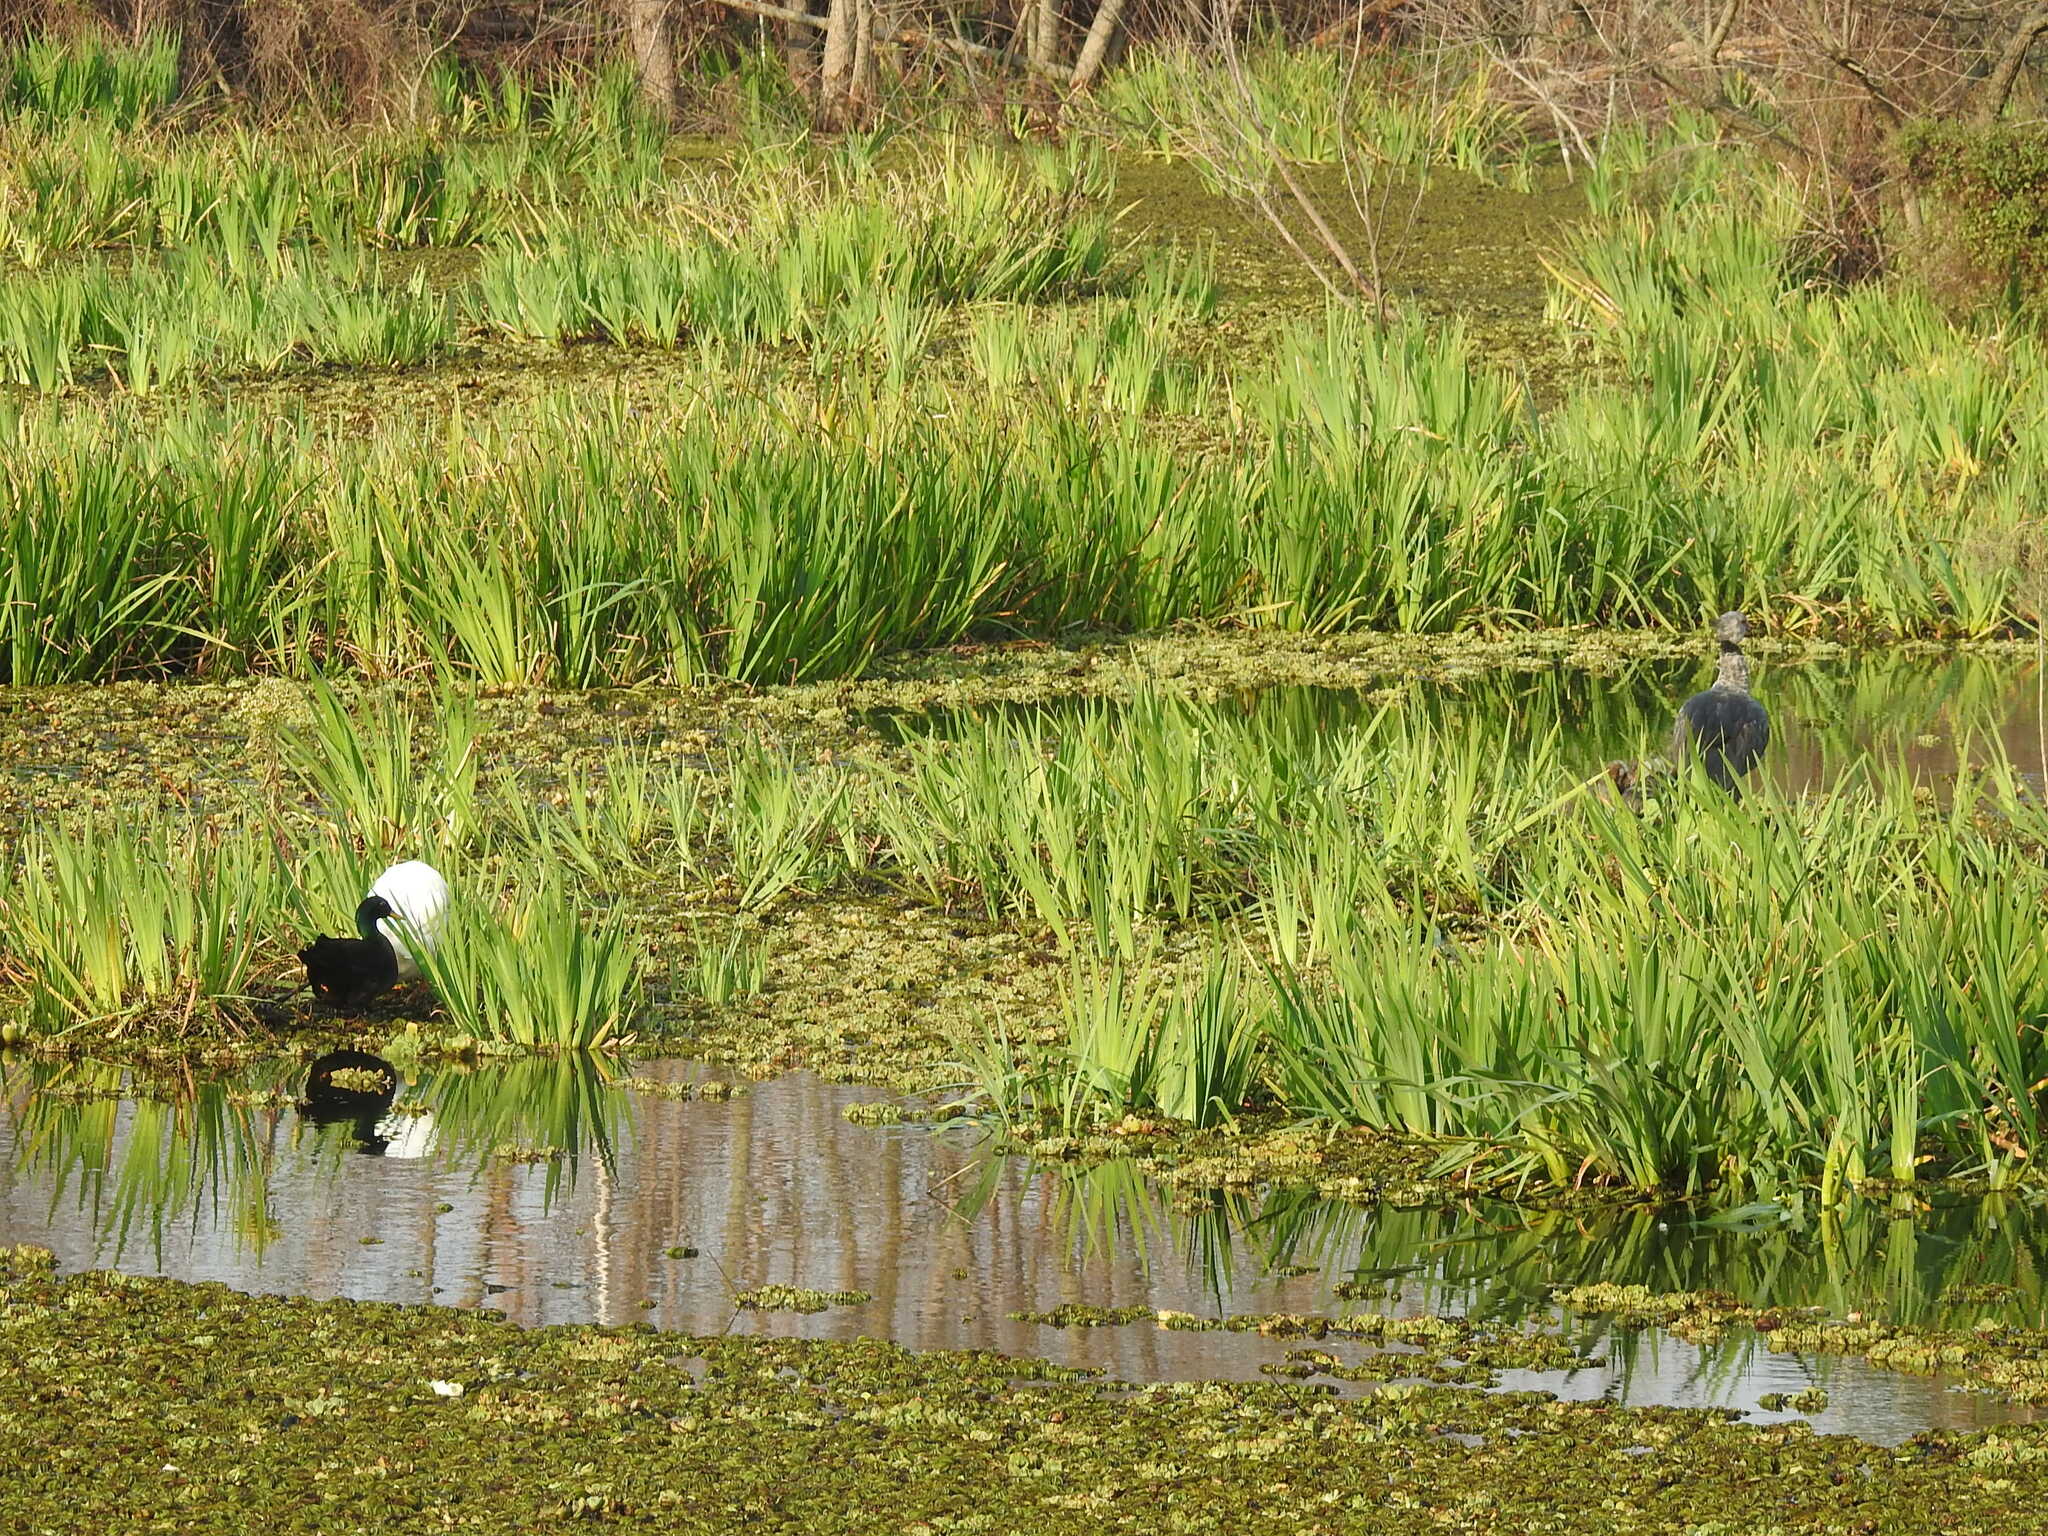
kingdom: Animalia
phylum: Chordata
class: Aves
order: Anseriformes
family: Anatidae
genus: Anas
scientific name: Anas platyrhynchos
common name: Mallard
